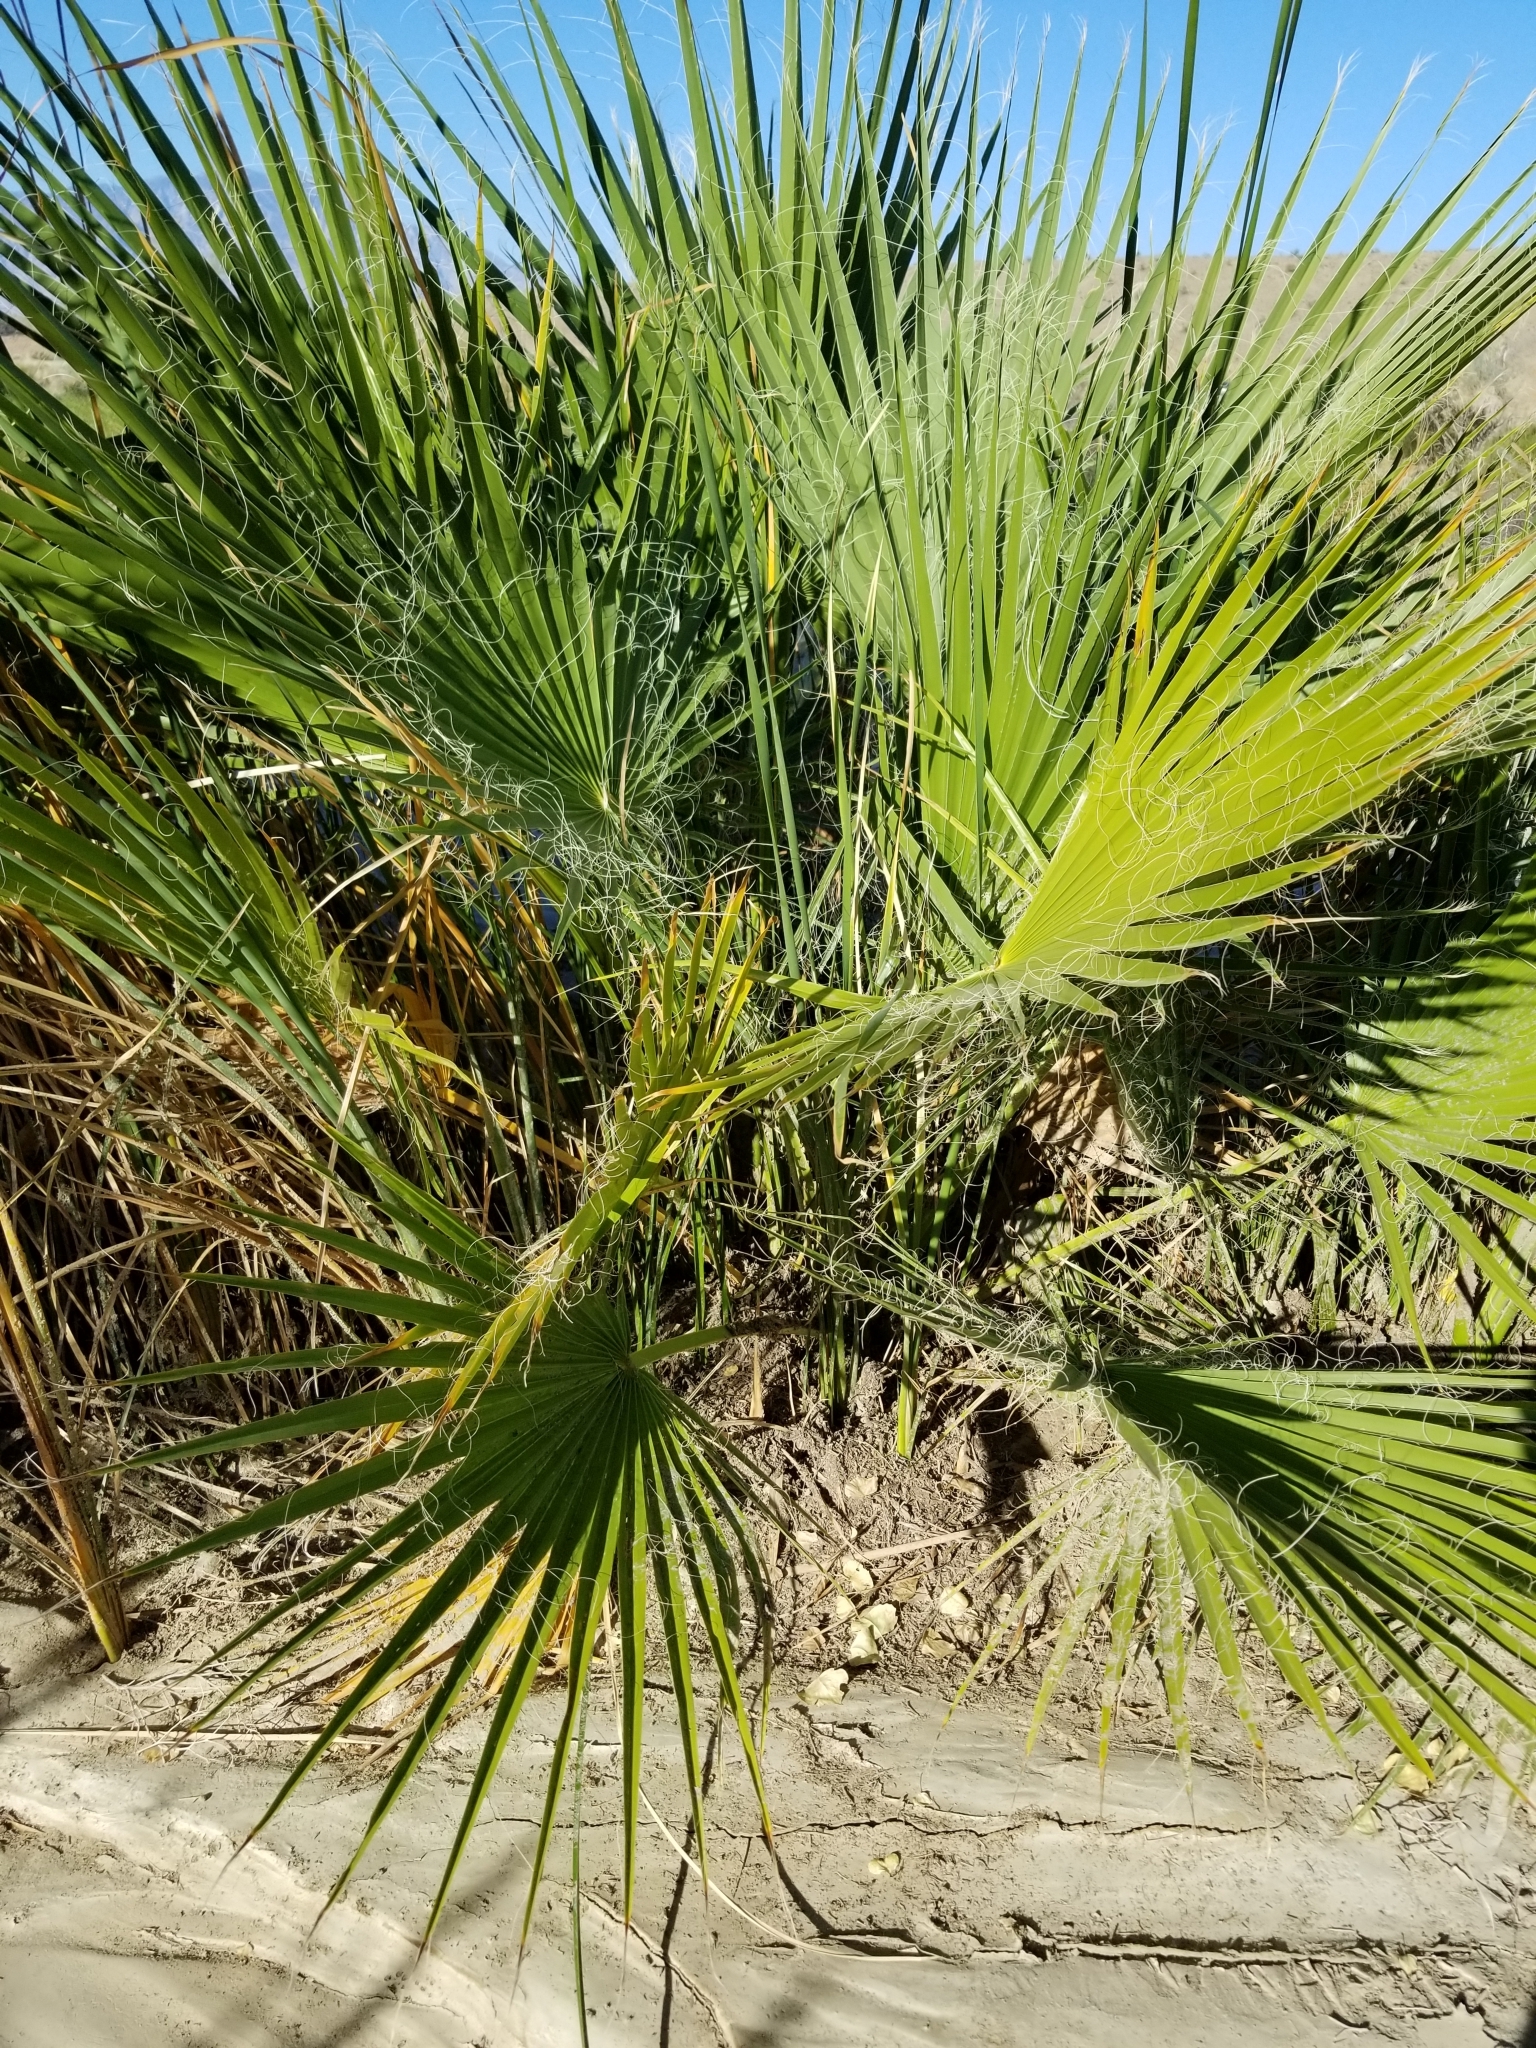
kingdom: Plantae
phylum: Tracheophyta
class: Liliopsida
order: Arecales
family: Arecaceae
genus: Washingtonia
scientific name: Washingtonia filifera
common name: California fan palm
